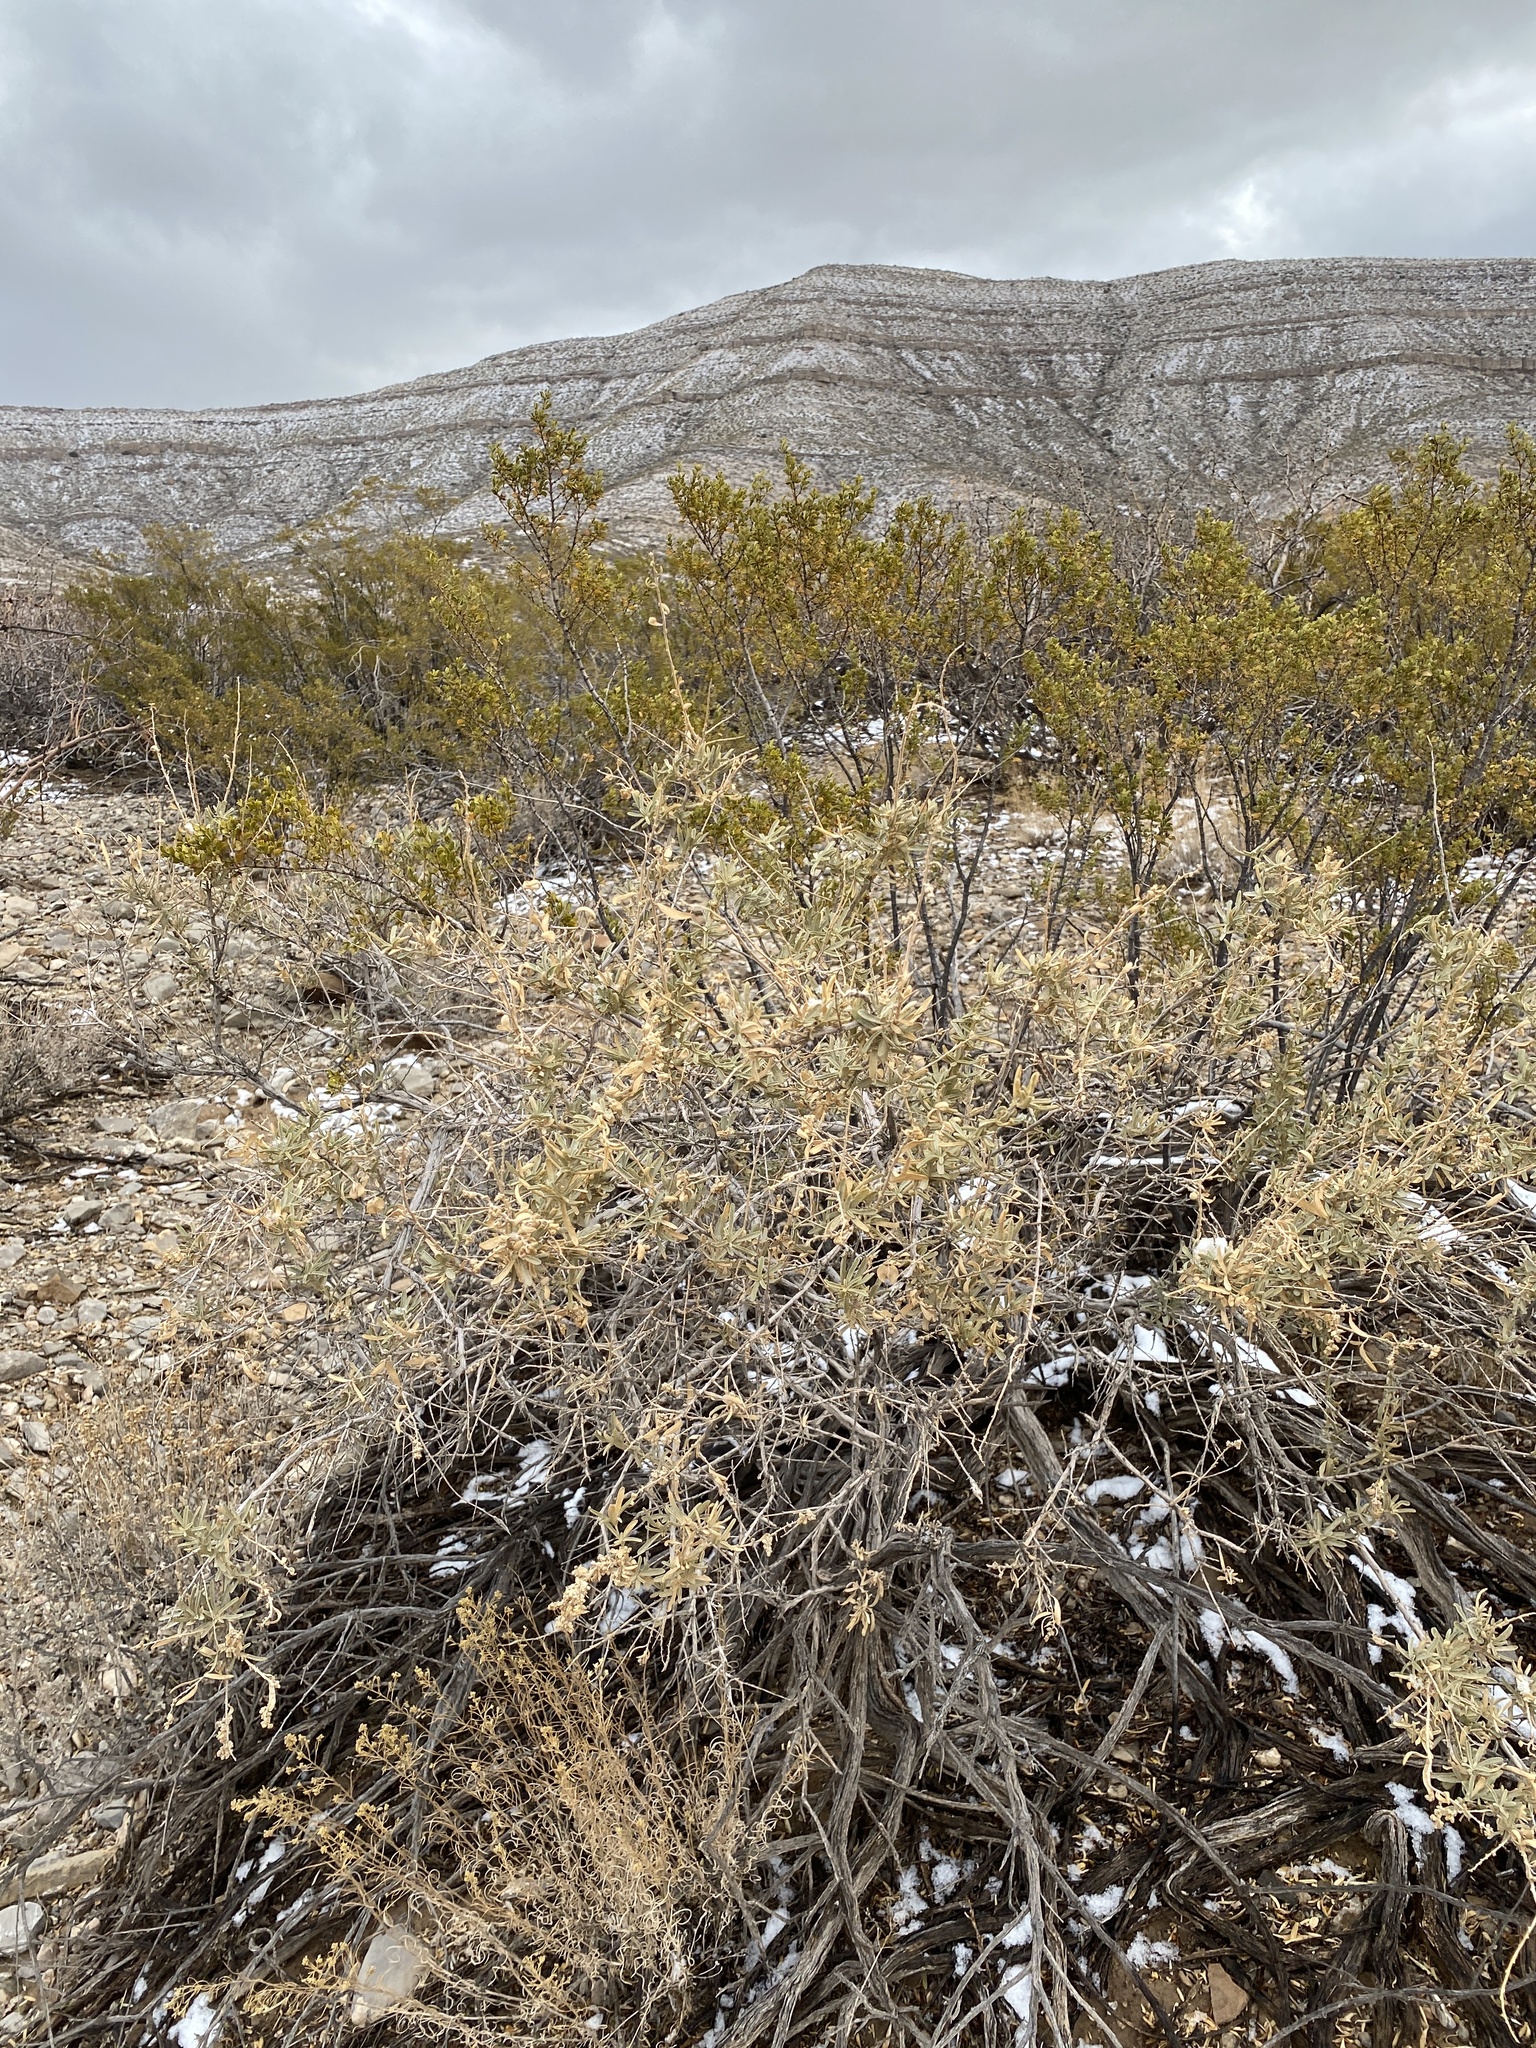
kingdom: Plantae
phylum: Tracheophyta
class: Magnoliopsida
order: Caryophyllales
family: Amaranthaceae
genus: Atriplex
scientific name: Atriplex canescens
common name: Four-wing saltbush
